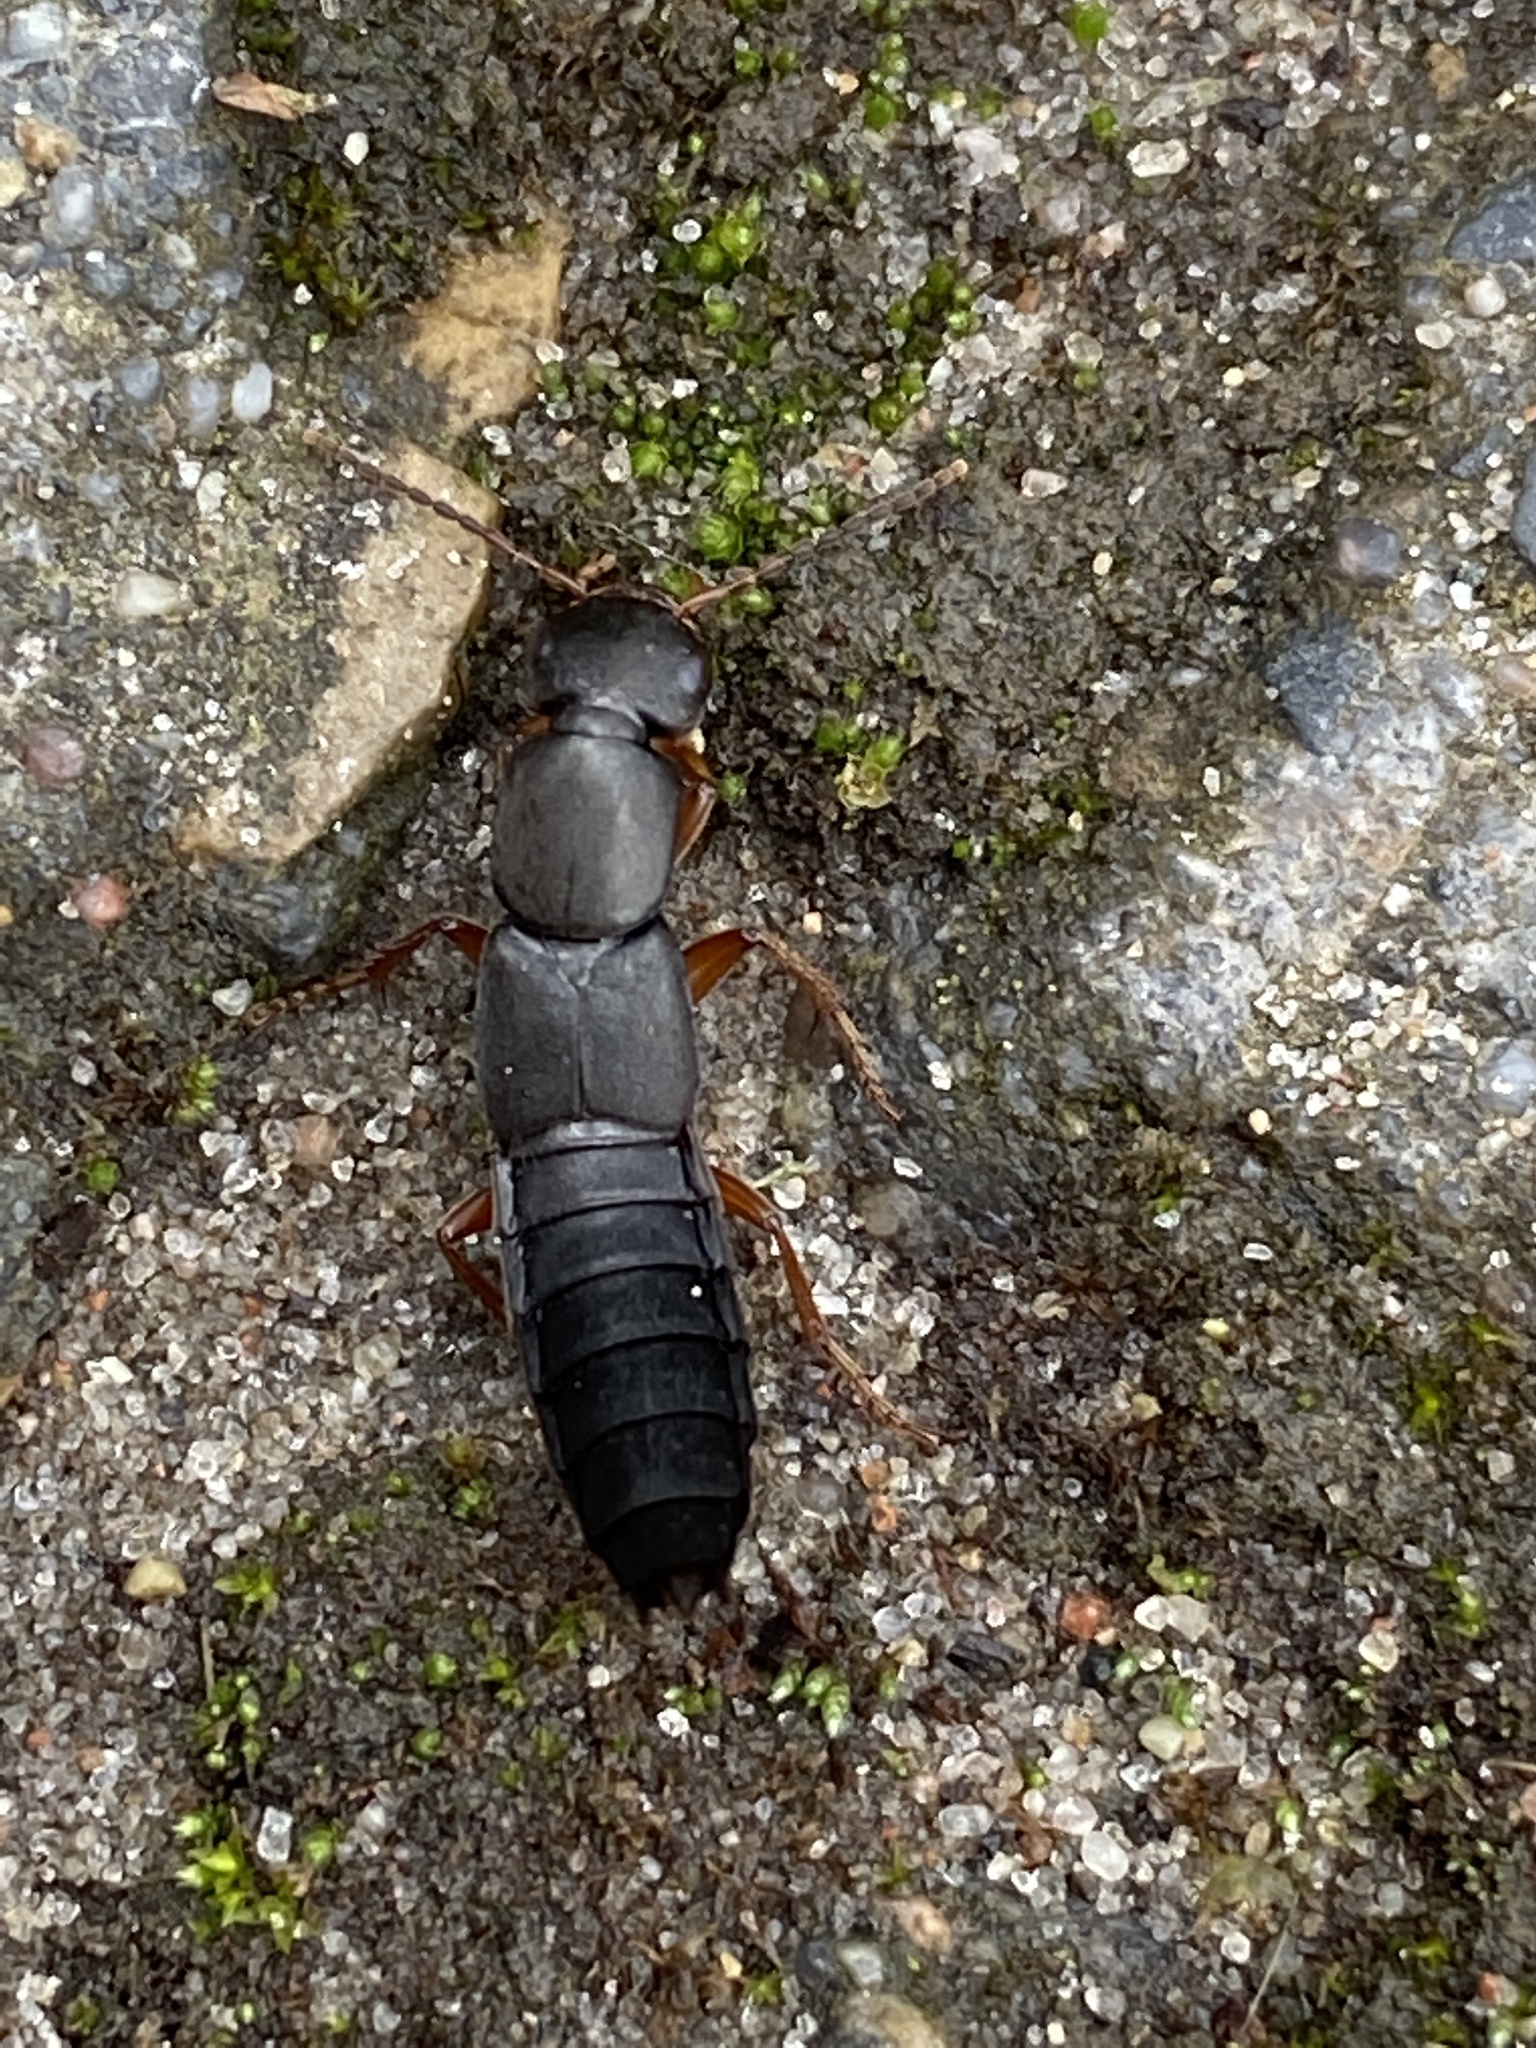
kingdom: Animalia
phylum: Arthropoda
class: Insecta
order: Coleoptera
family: Staphylinidae
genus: Tasgius
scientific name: Tasgius morsitans
